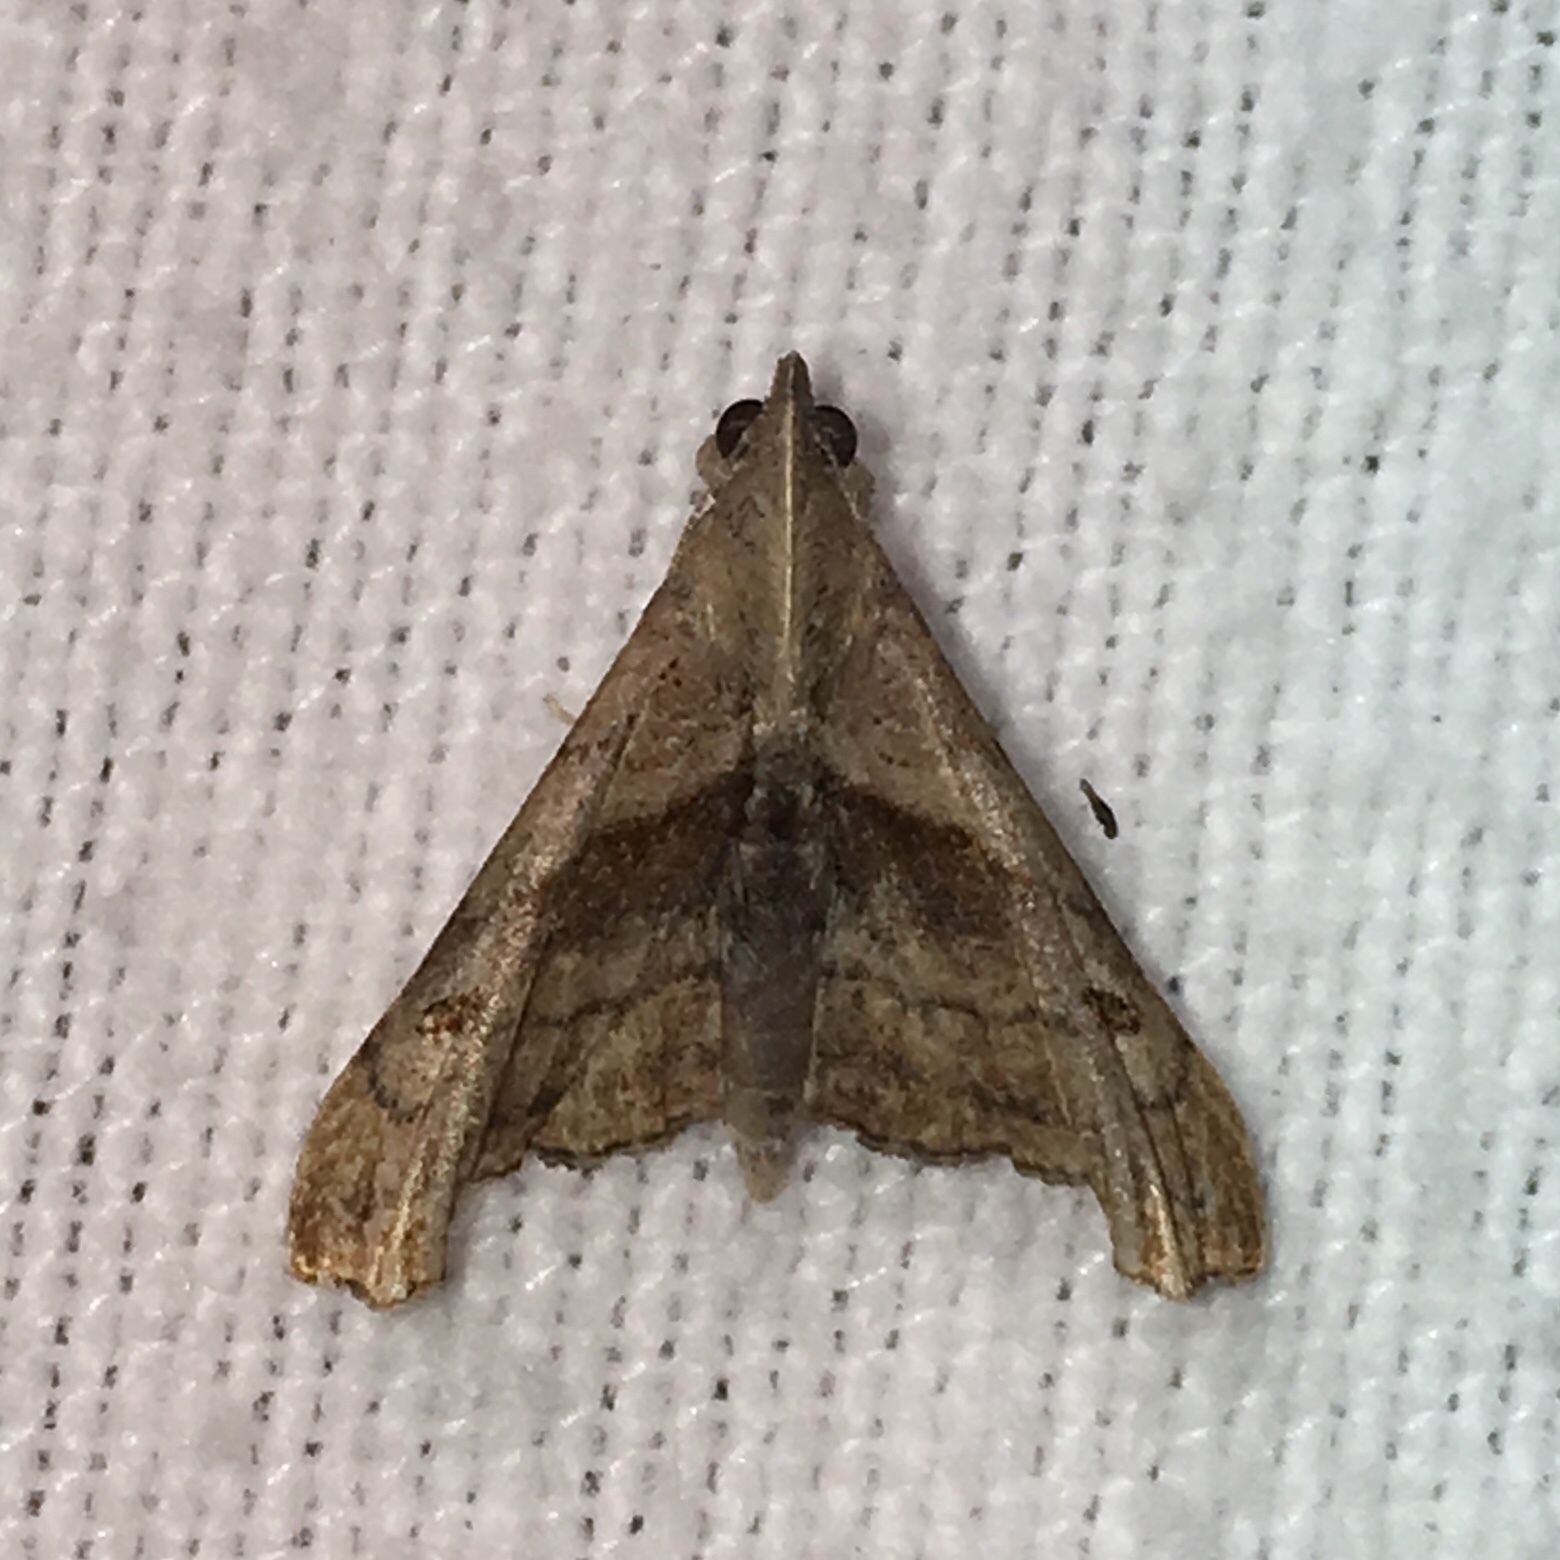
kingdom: Animalia
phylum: Arthropoda
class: Insecta
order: Lepidoptera
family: Erebidae
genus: Palthis
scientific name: Palthis angulalis
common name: Dark-spotted palthis moth
